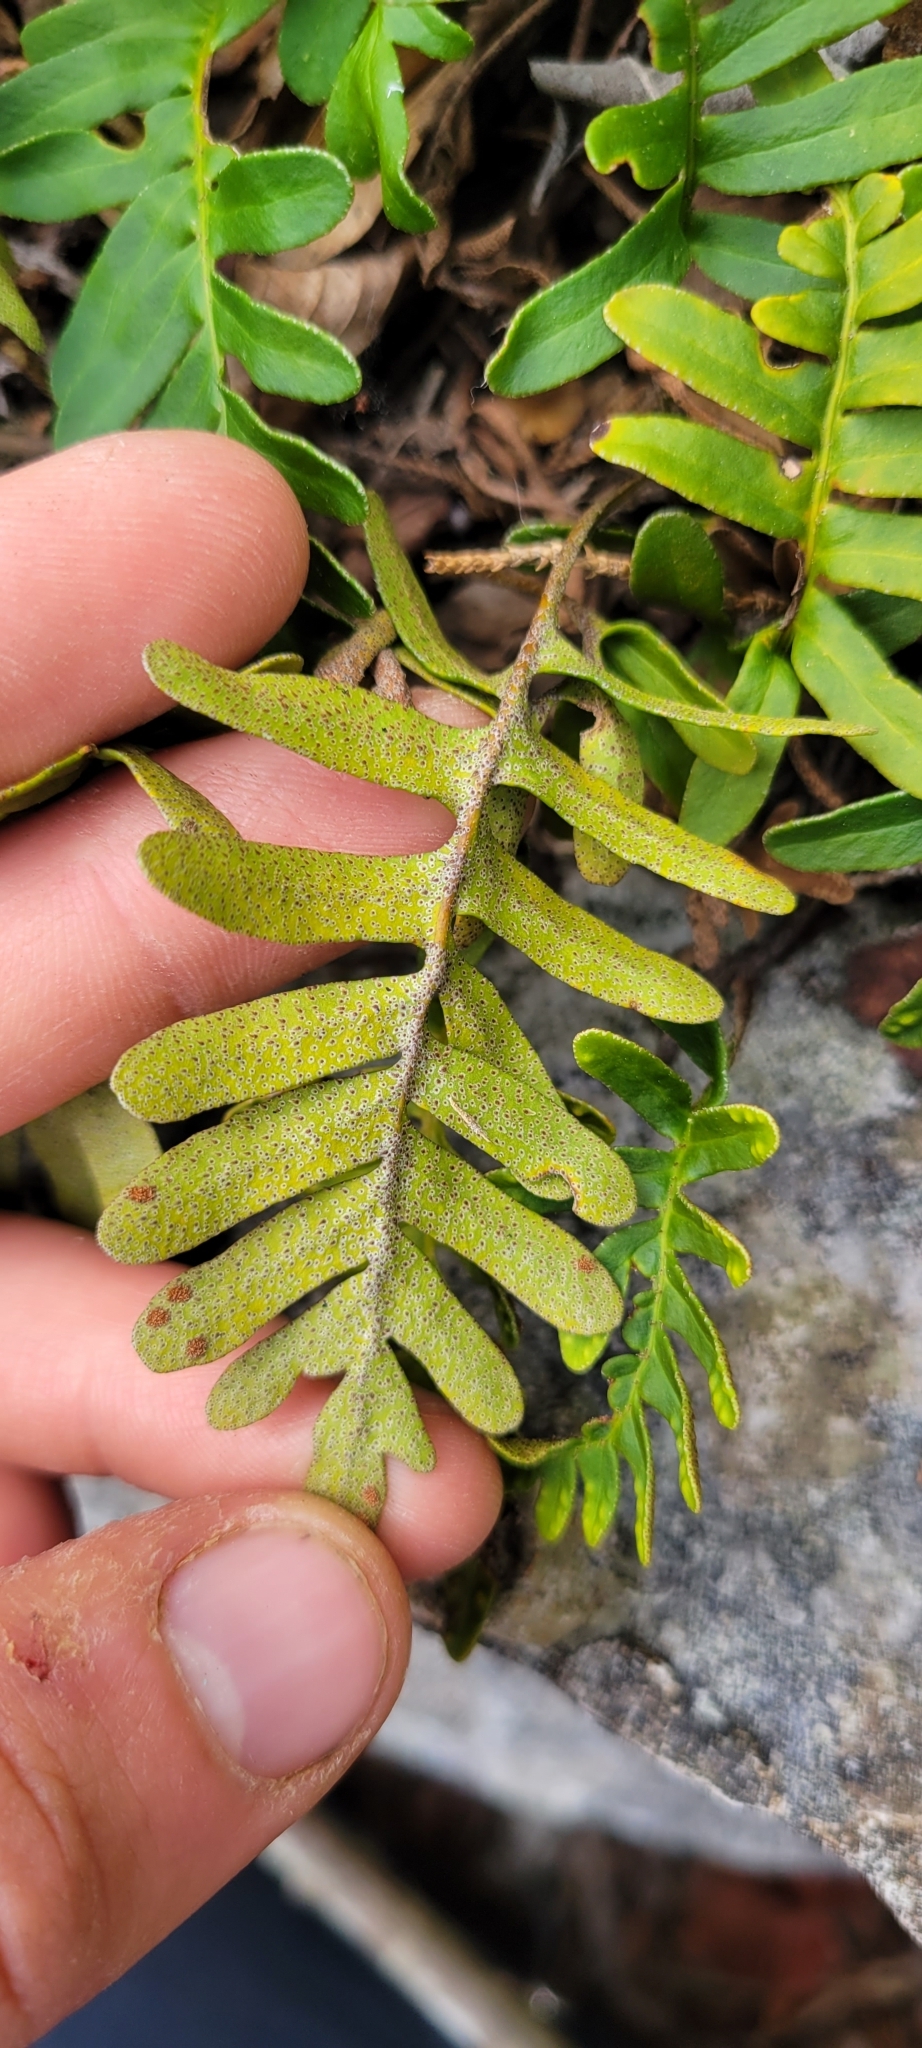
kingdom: Plantae
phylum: Tracheophyta
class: Polypodiopsida
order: Polypodiales
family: Polypodiaceae
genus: Pleopeltis
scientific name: Pleopeltis michauxiana
